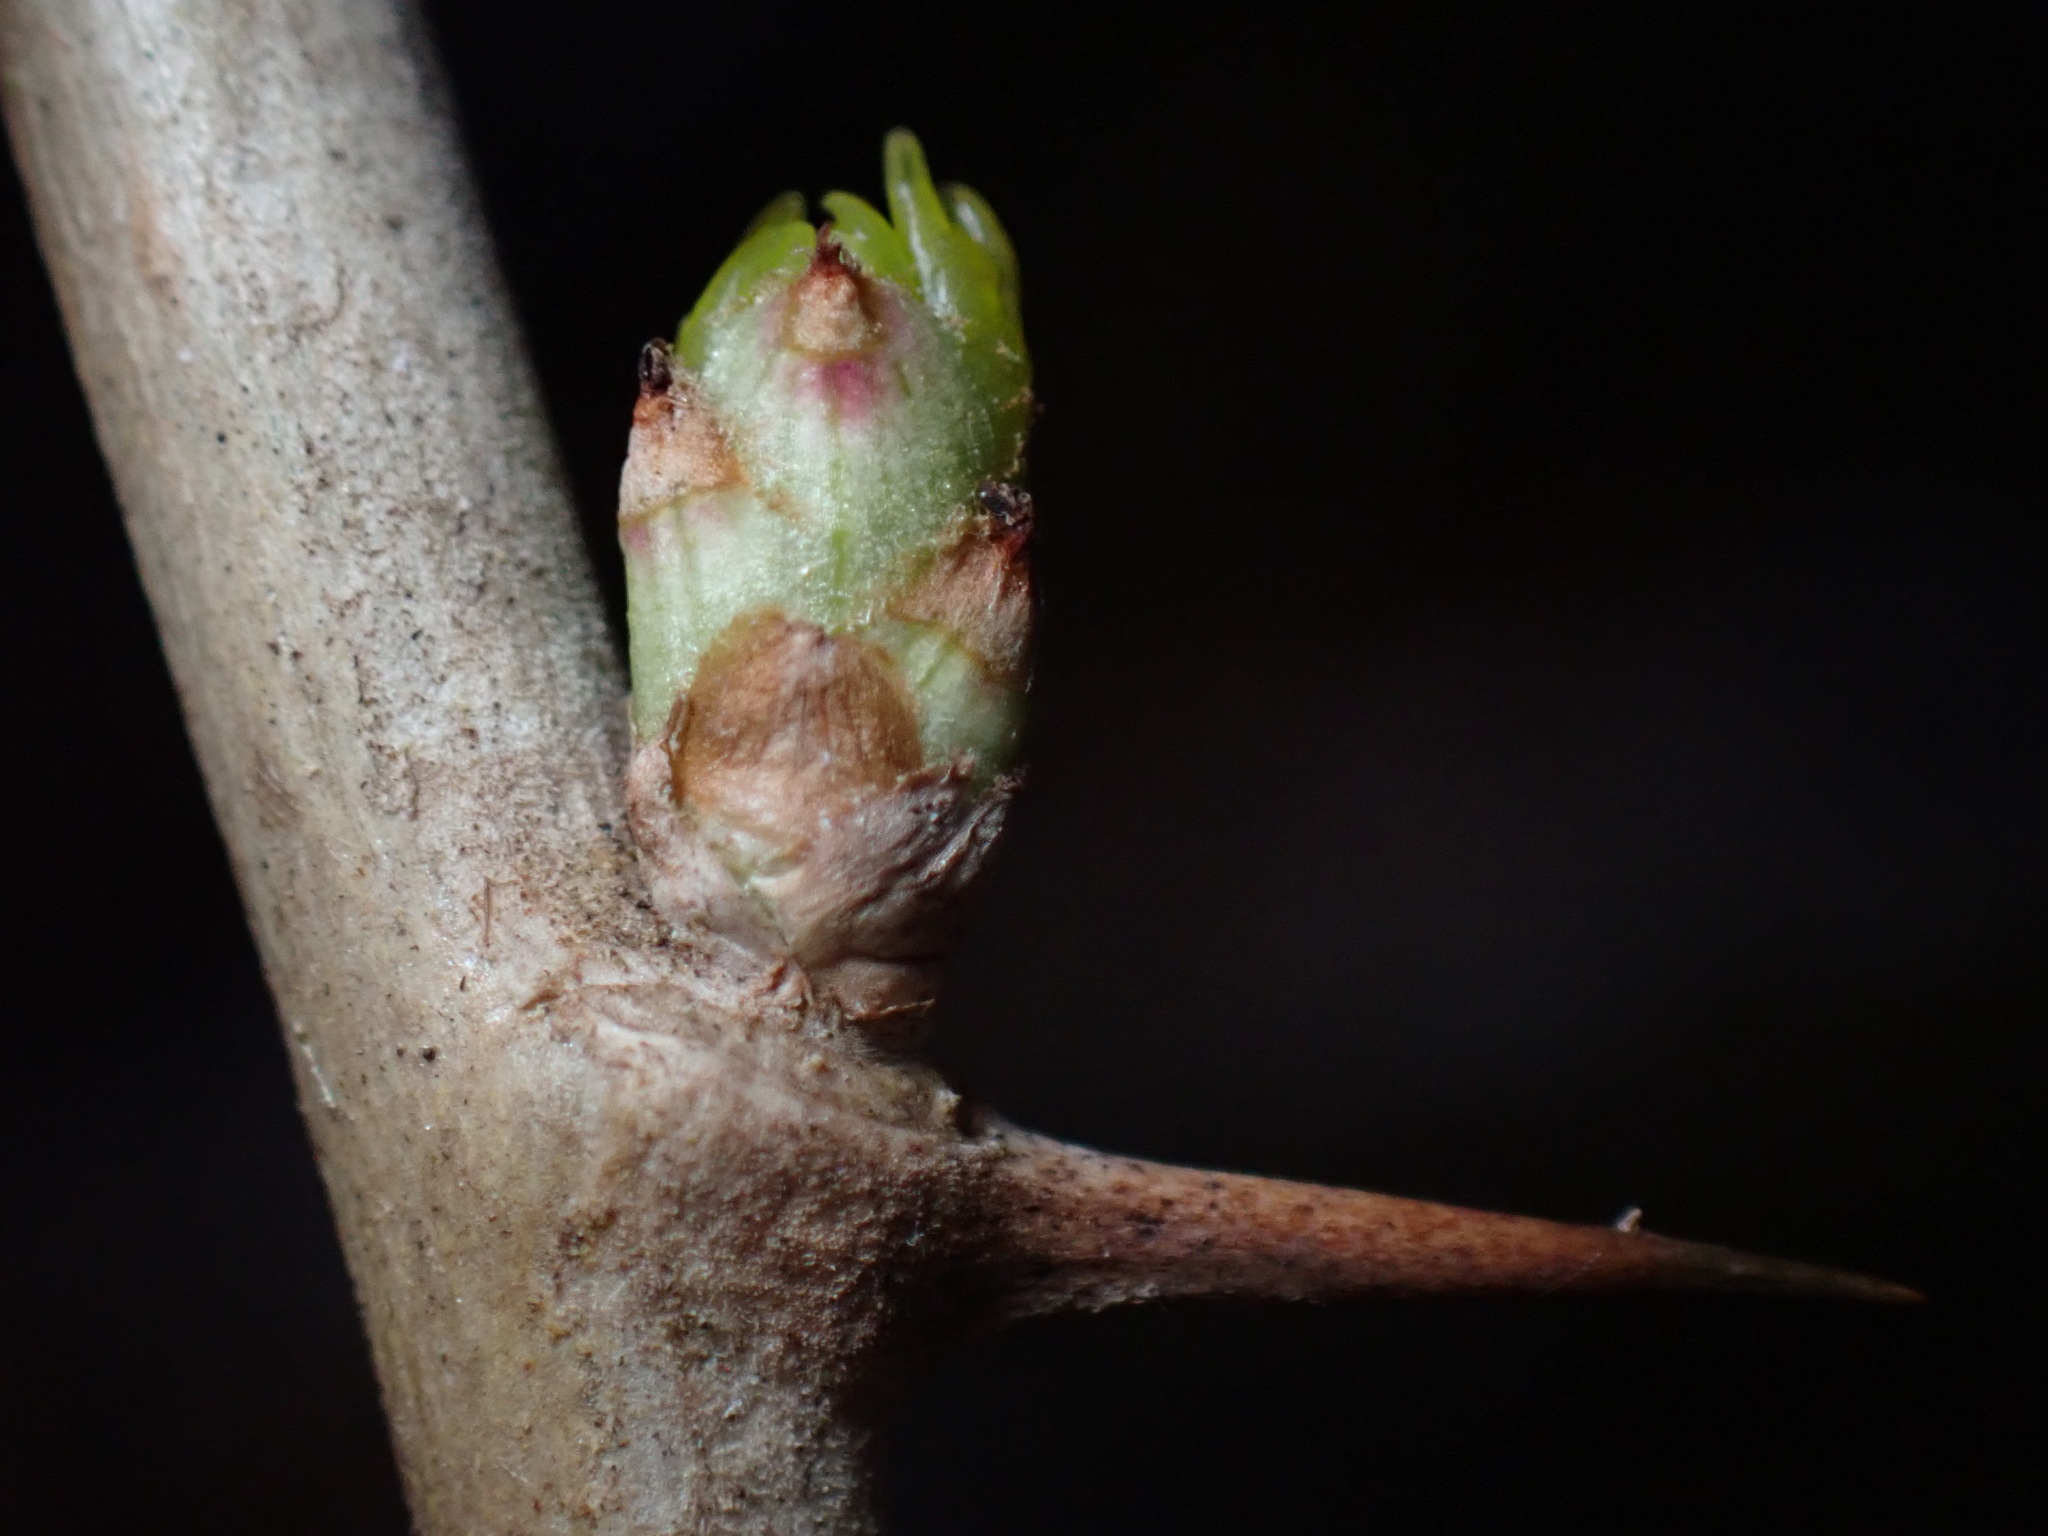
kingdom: Plantae
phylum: Tracheophyta
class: Magnoliopsida
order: Apiales
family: Araliaceae
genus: Eleutherococcus
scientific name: Eleutherococcus sieboldianus
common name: Ginseng
